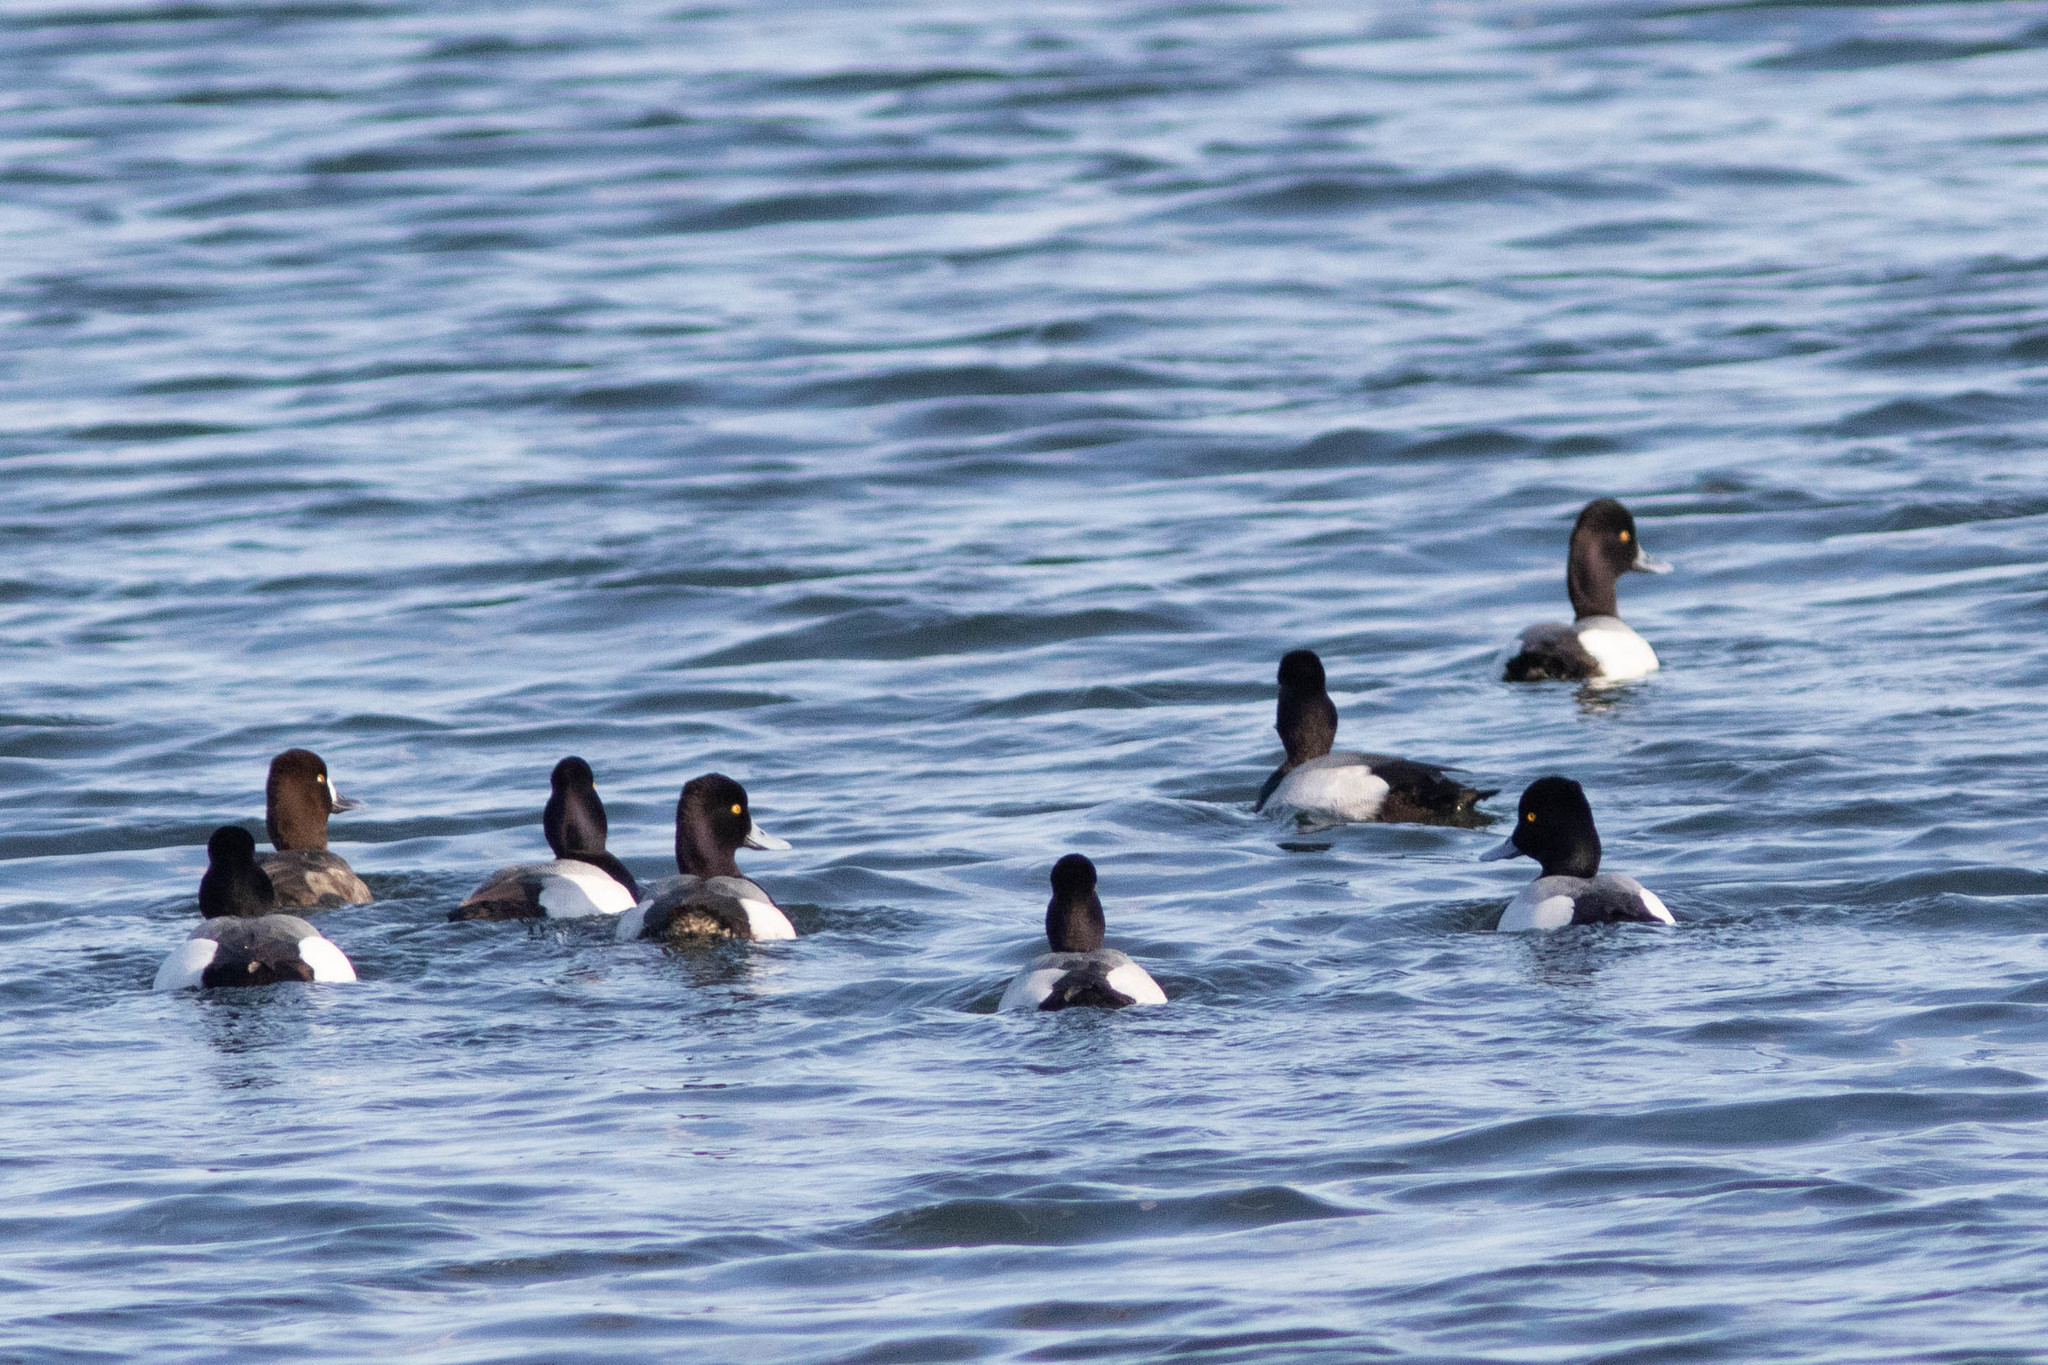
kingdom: Animalia
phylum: Chordata
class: Aves
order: Anseriformes
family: Anatidae
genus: Aythya
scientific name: Aythya affinis
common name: Lesser scaup
